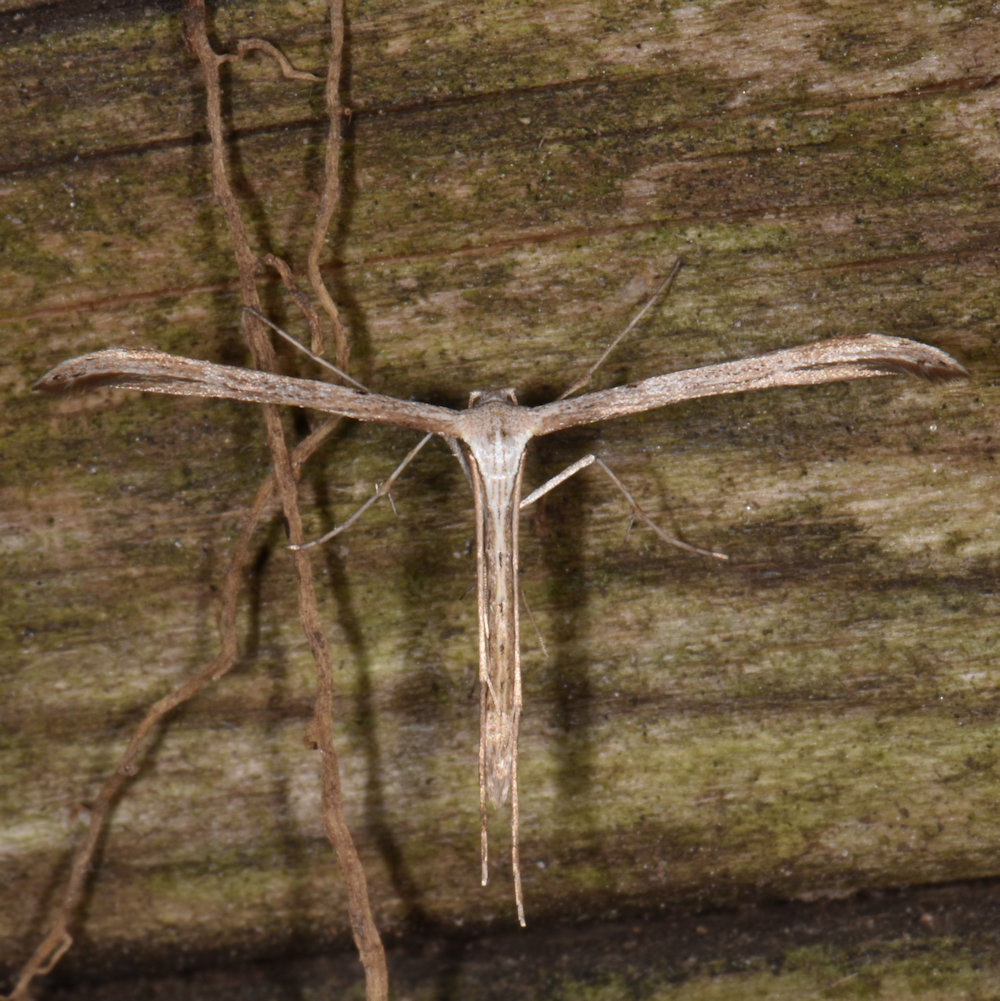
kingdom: Animalia
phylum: Arthropoda
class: Insecta
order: Lepidoptera
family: Pterophoridae
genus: Emmelina
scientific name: Emmelina monodactyla
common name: Common plume
